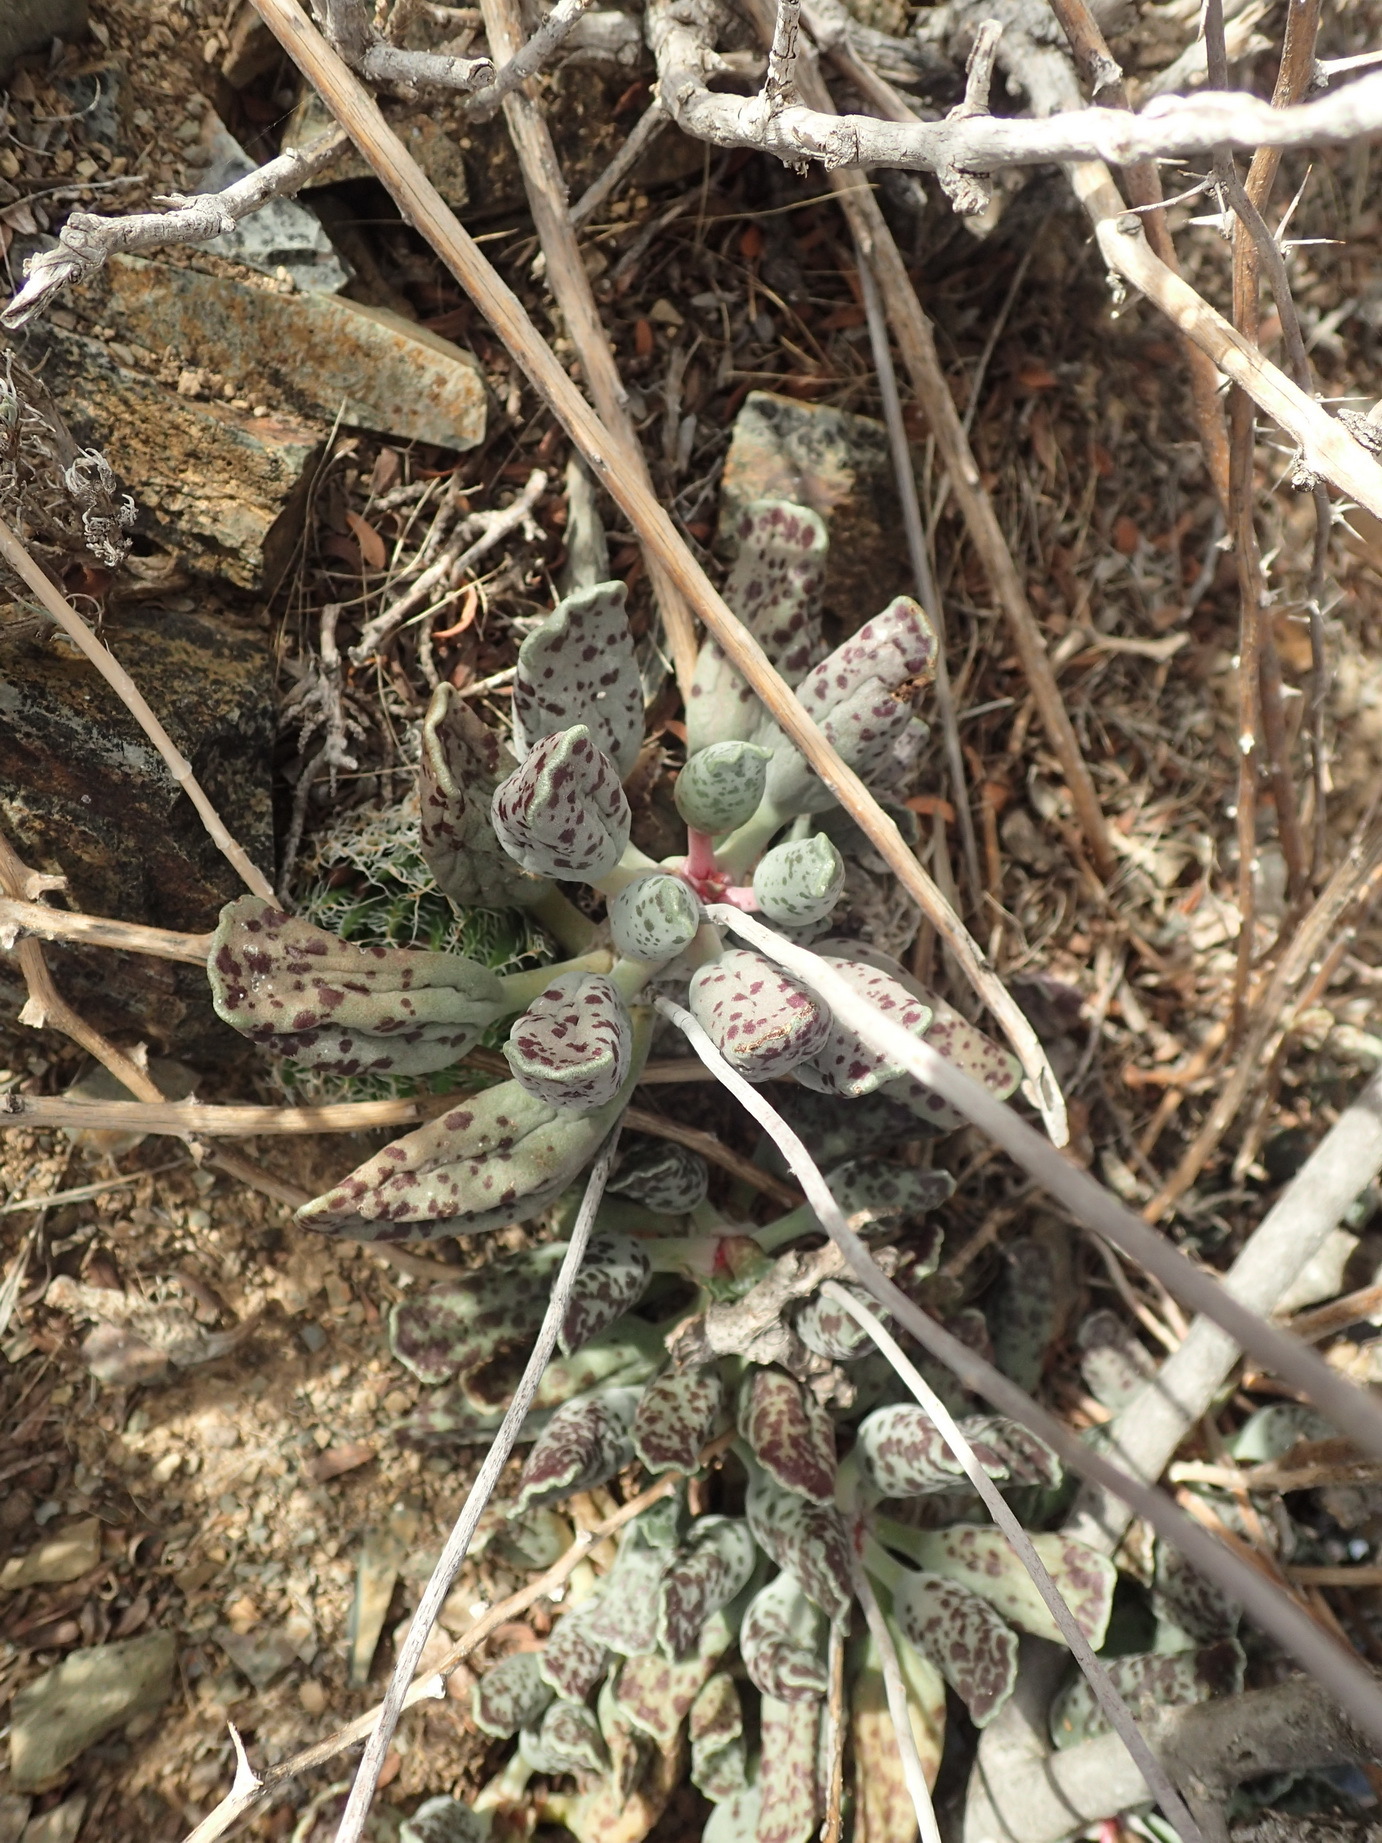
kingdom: Plantae
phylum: Tracheophyta
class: Magnoliopsida
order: Saxifragales
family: Crassulaceae
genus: Adromischus
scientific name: Adromischus cooperi
